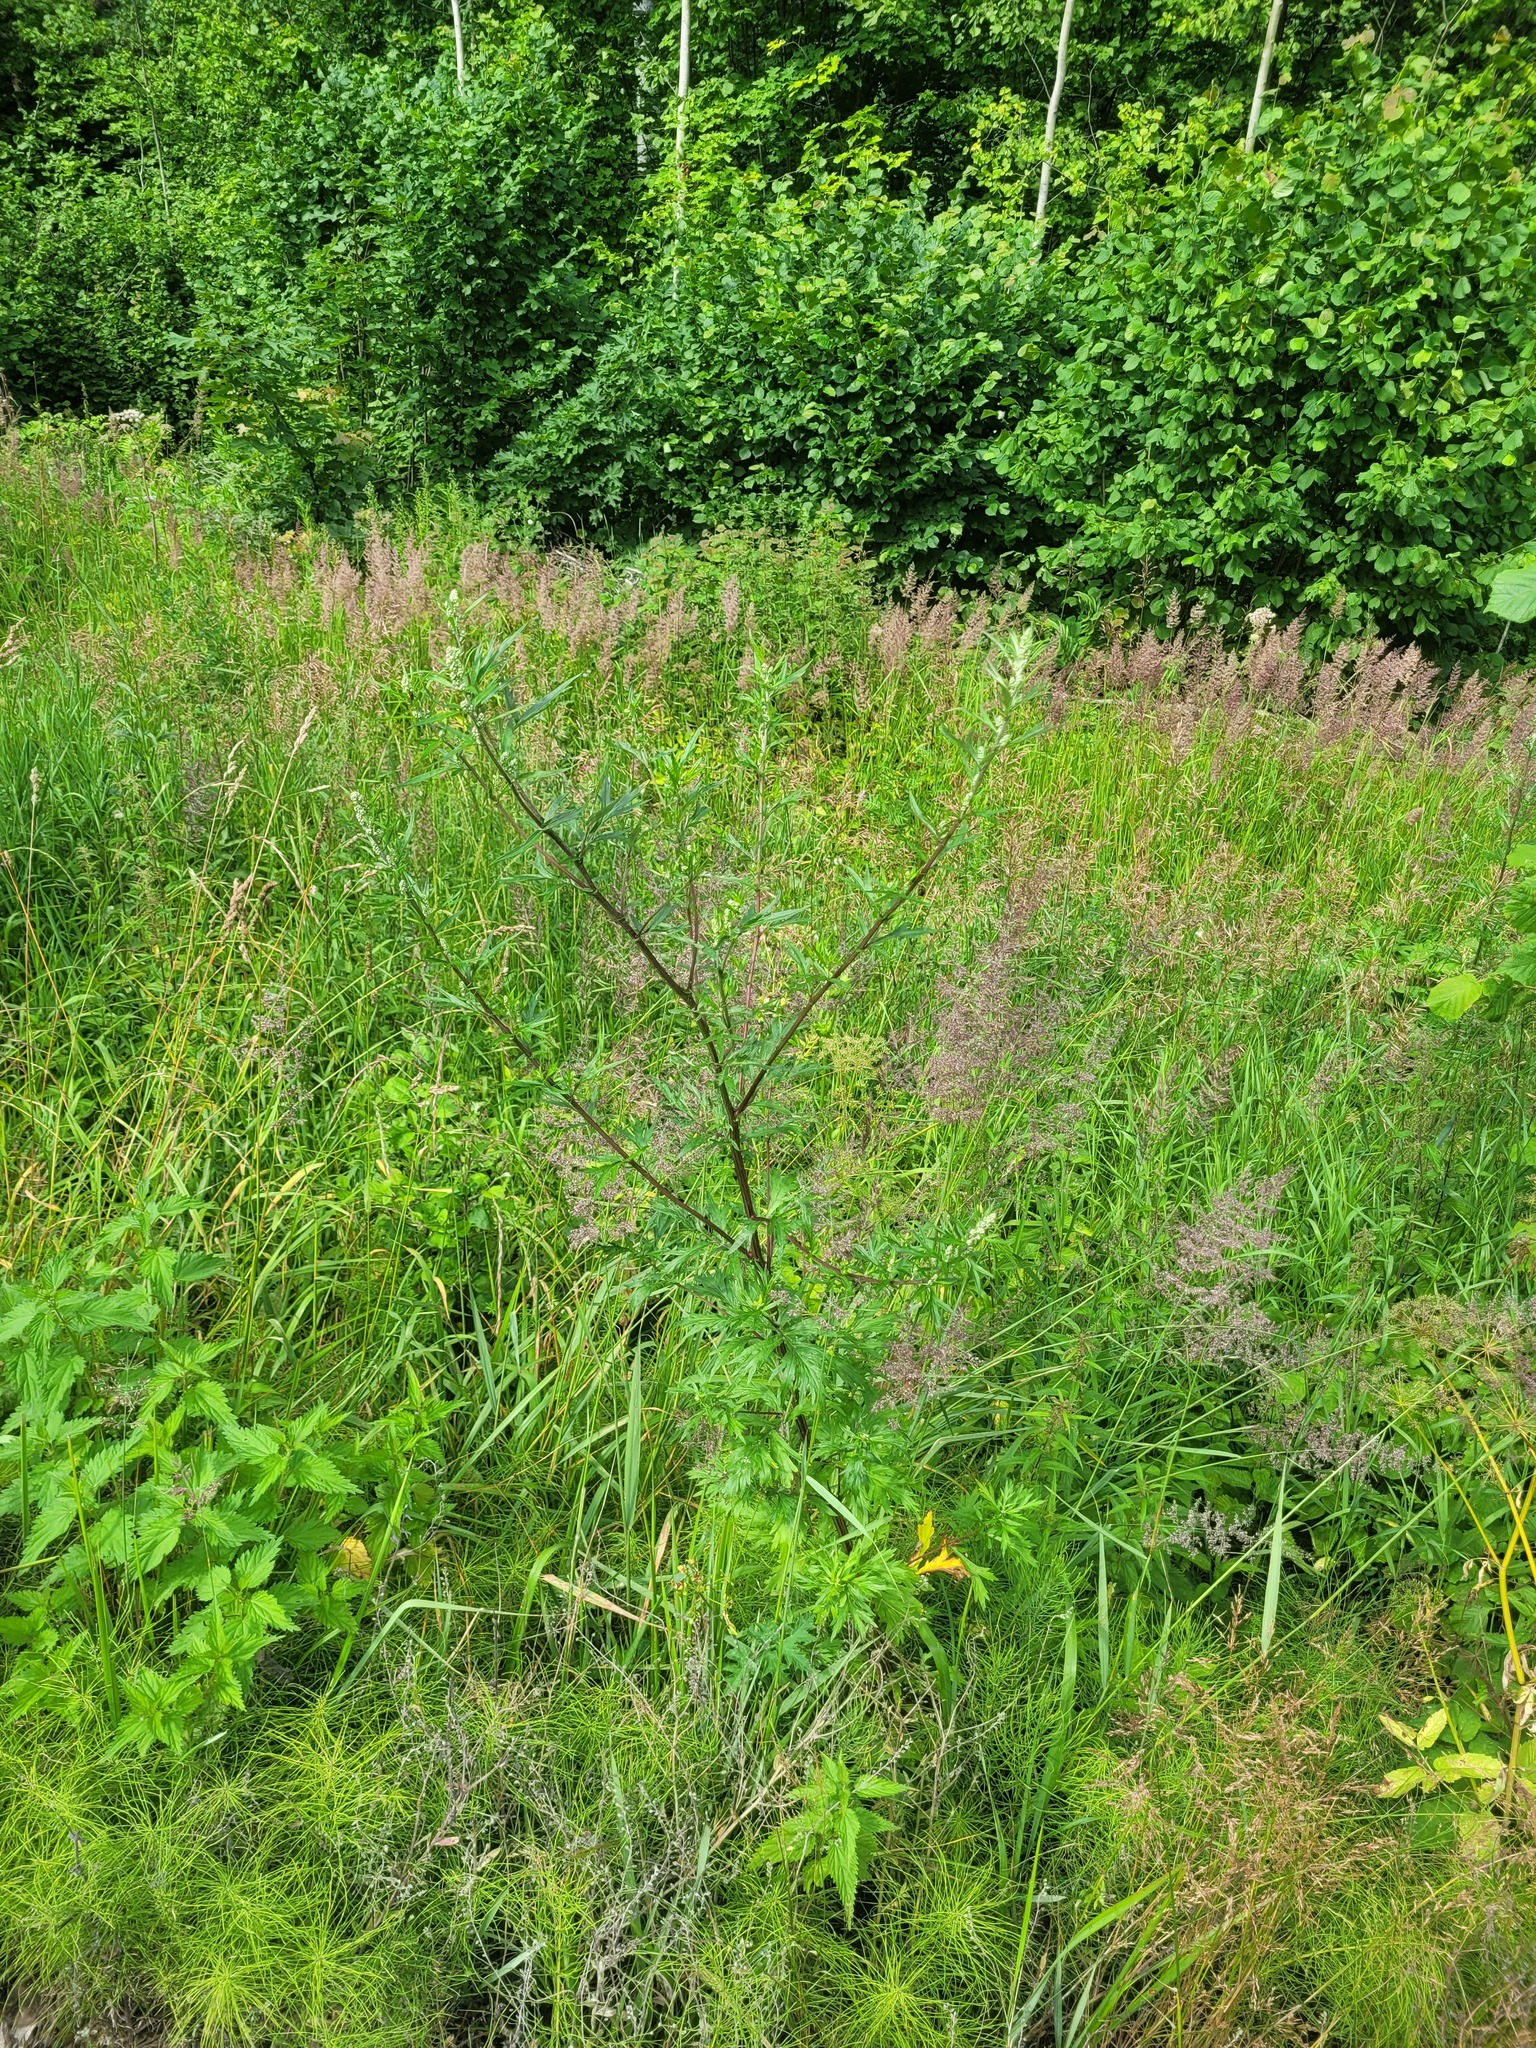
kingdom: Plantae
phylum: Tracheophyta
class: Magnoliopsida
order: Asterales
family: Asteraceae
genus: Artemisia
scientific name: Artemisia vulgaris
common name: Mugwort
